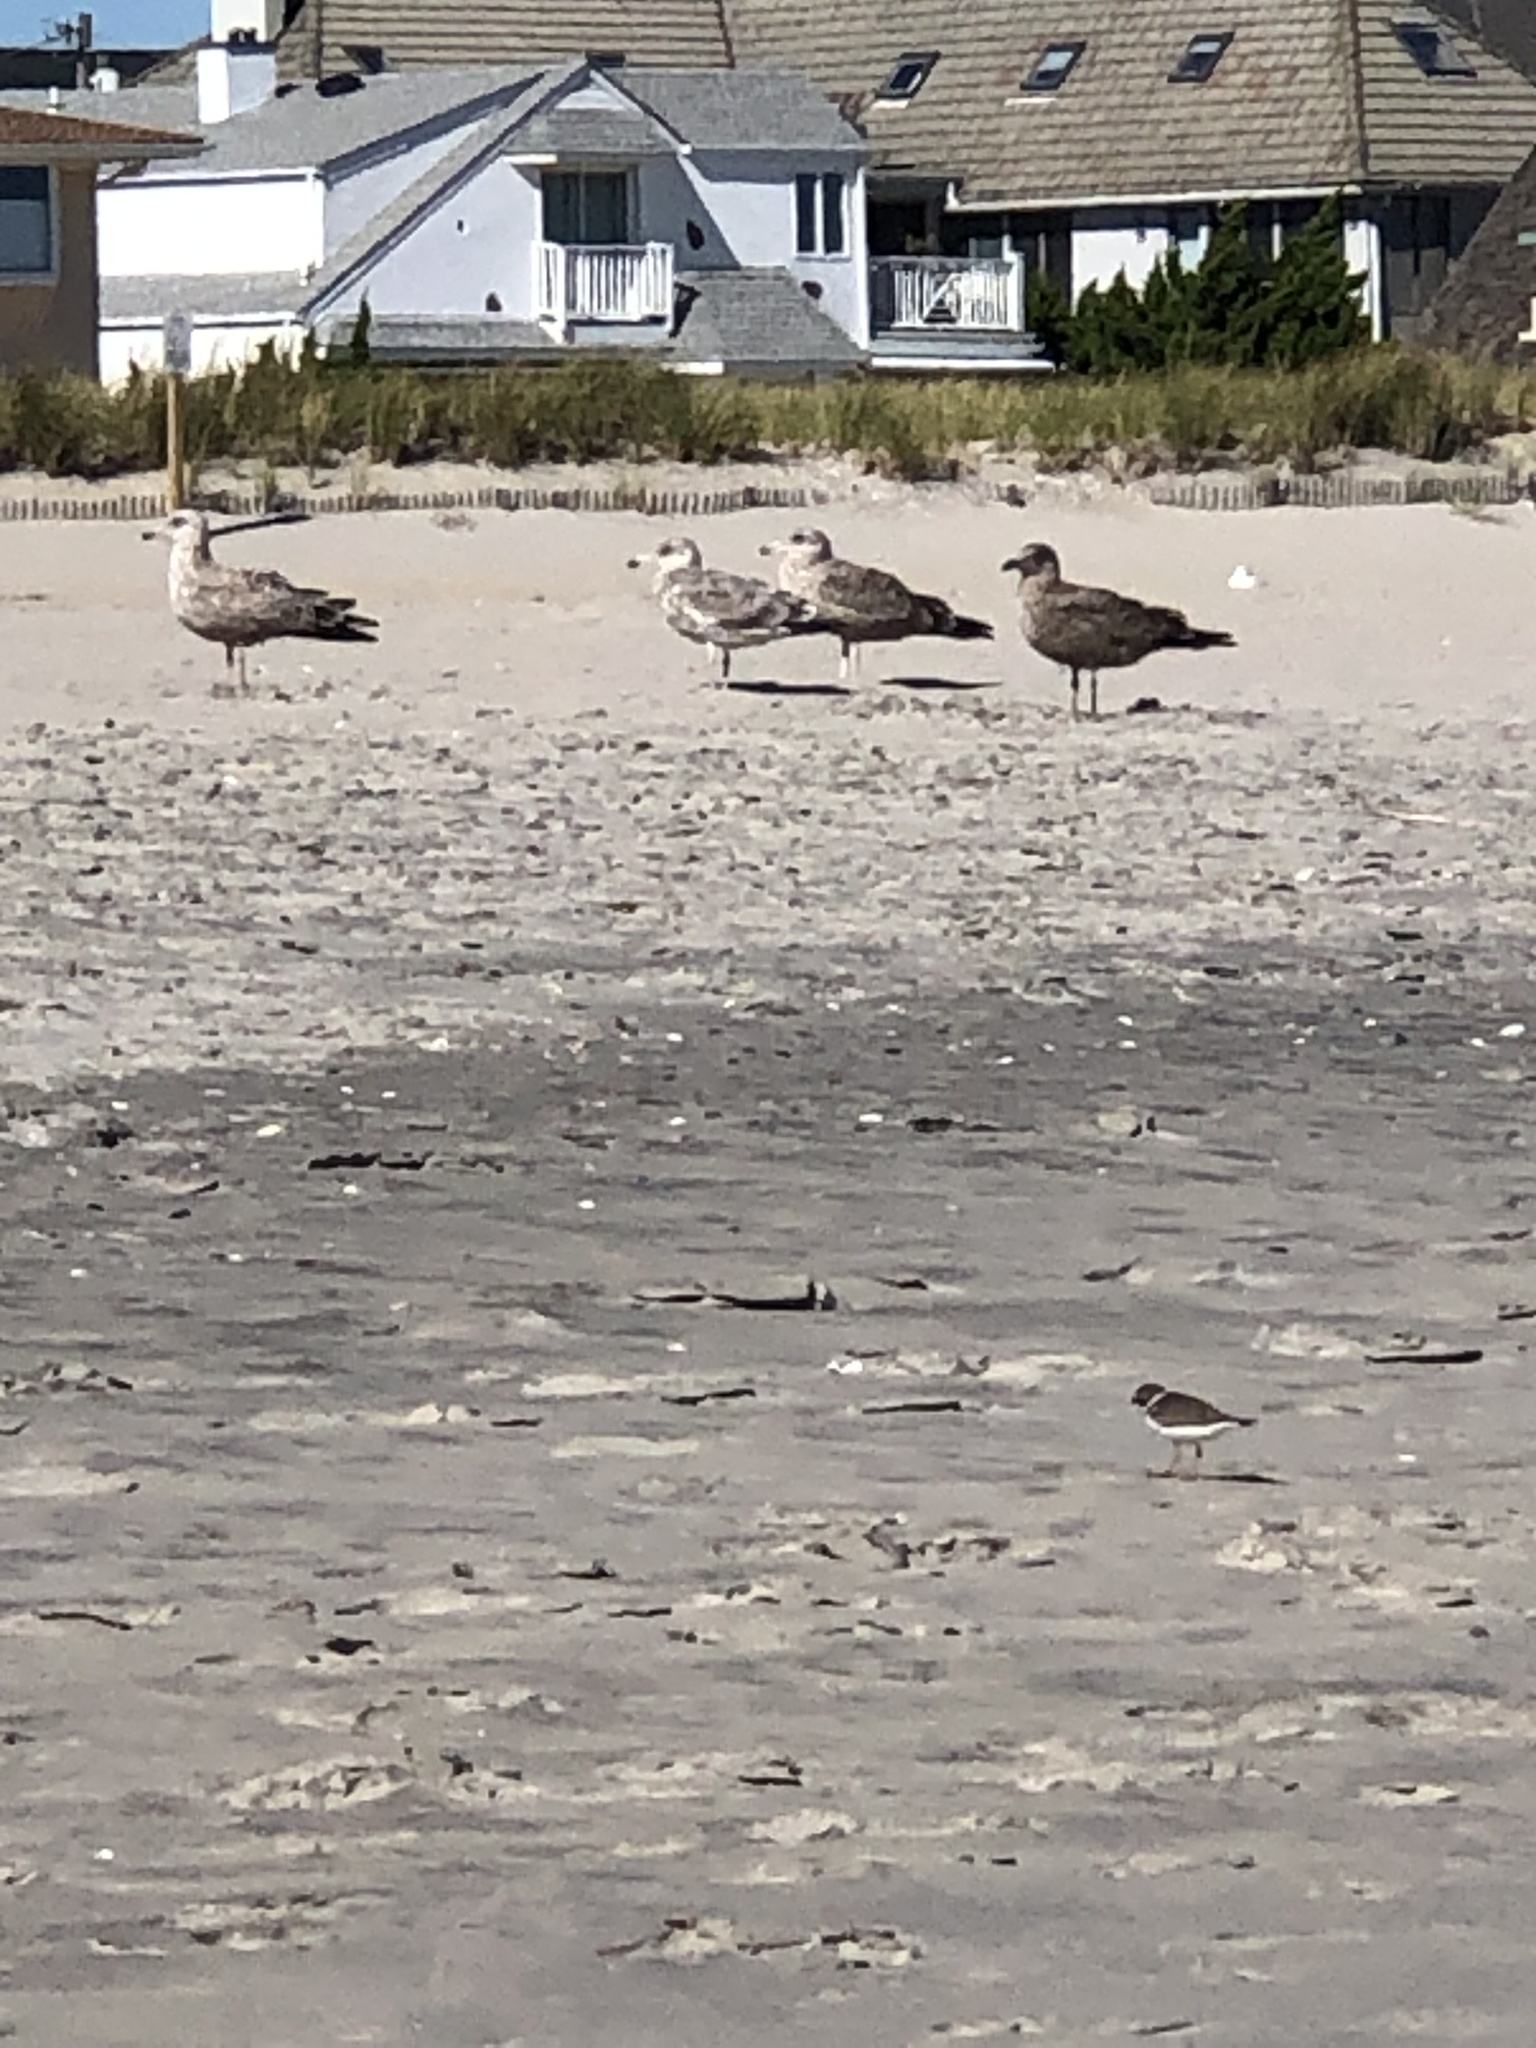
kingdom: Animalia
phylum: Chordata
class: Aves
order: Charadriiformes
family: Laridae
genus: Larus
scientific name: Larus argentatus
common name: Herring gull
